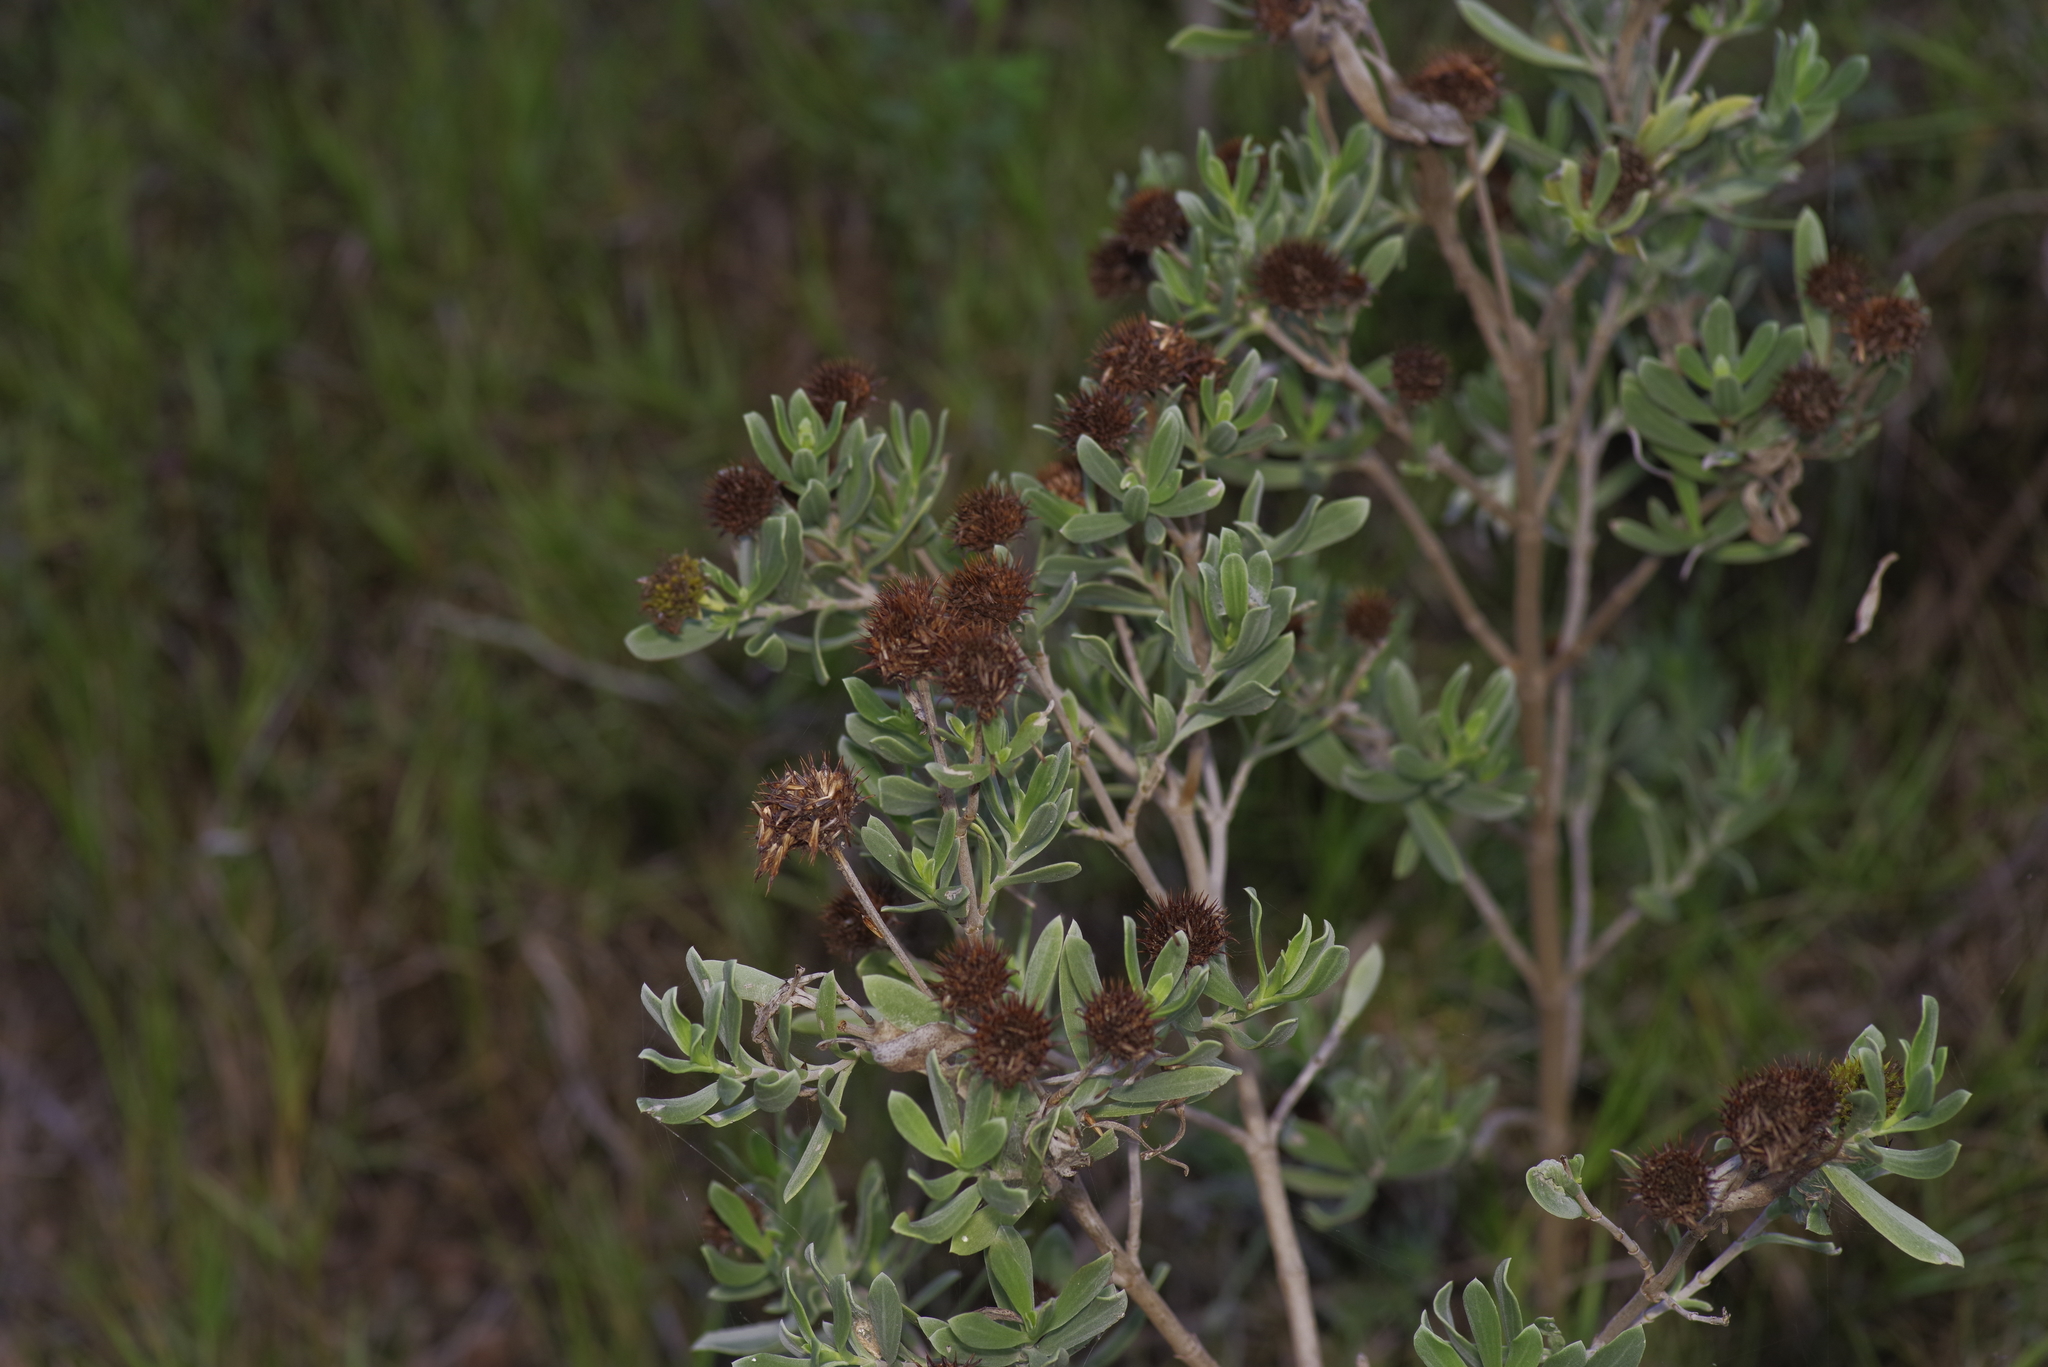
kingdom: Plantae
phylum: Tracheophyta
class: Magnoliopsida
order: Asterales
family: Asteraceae
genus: Borrichia
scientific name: Borrichia frutescens
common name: Sea oxeye
